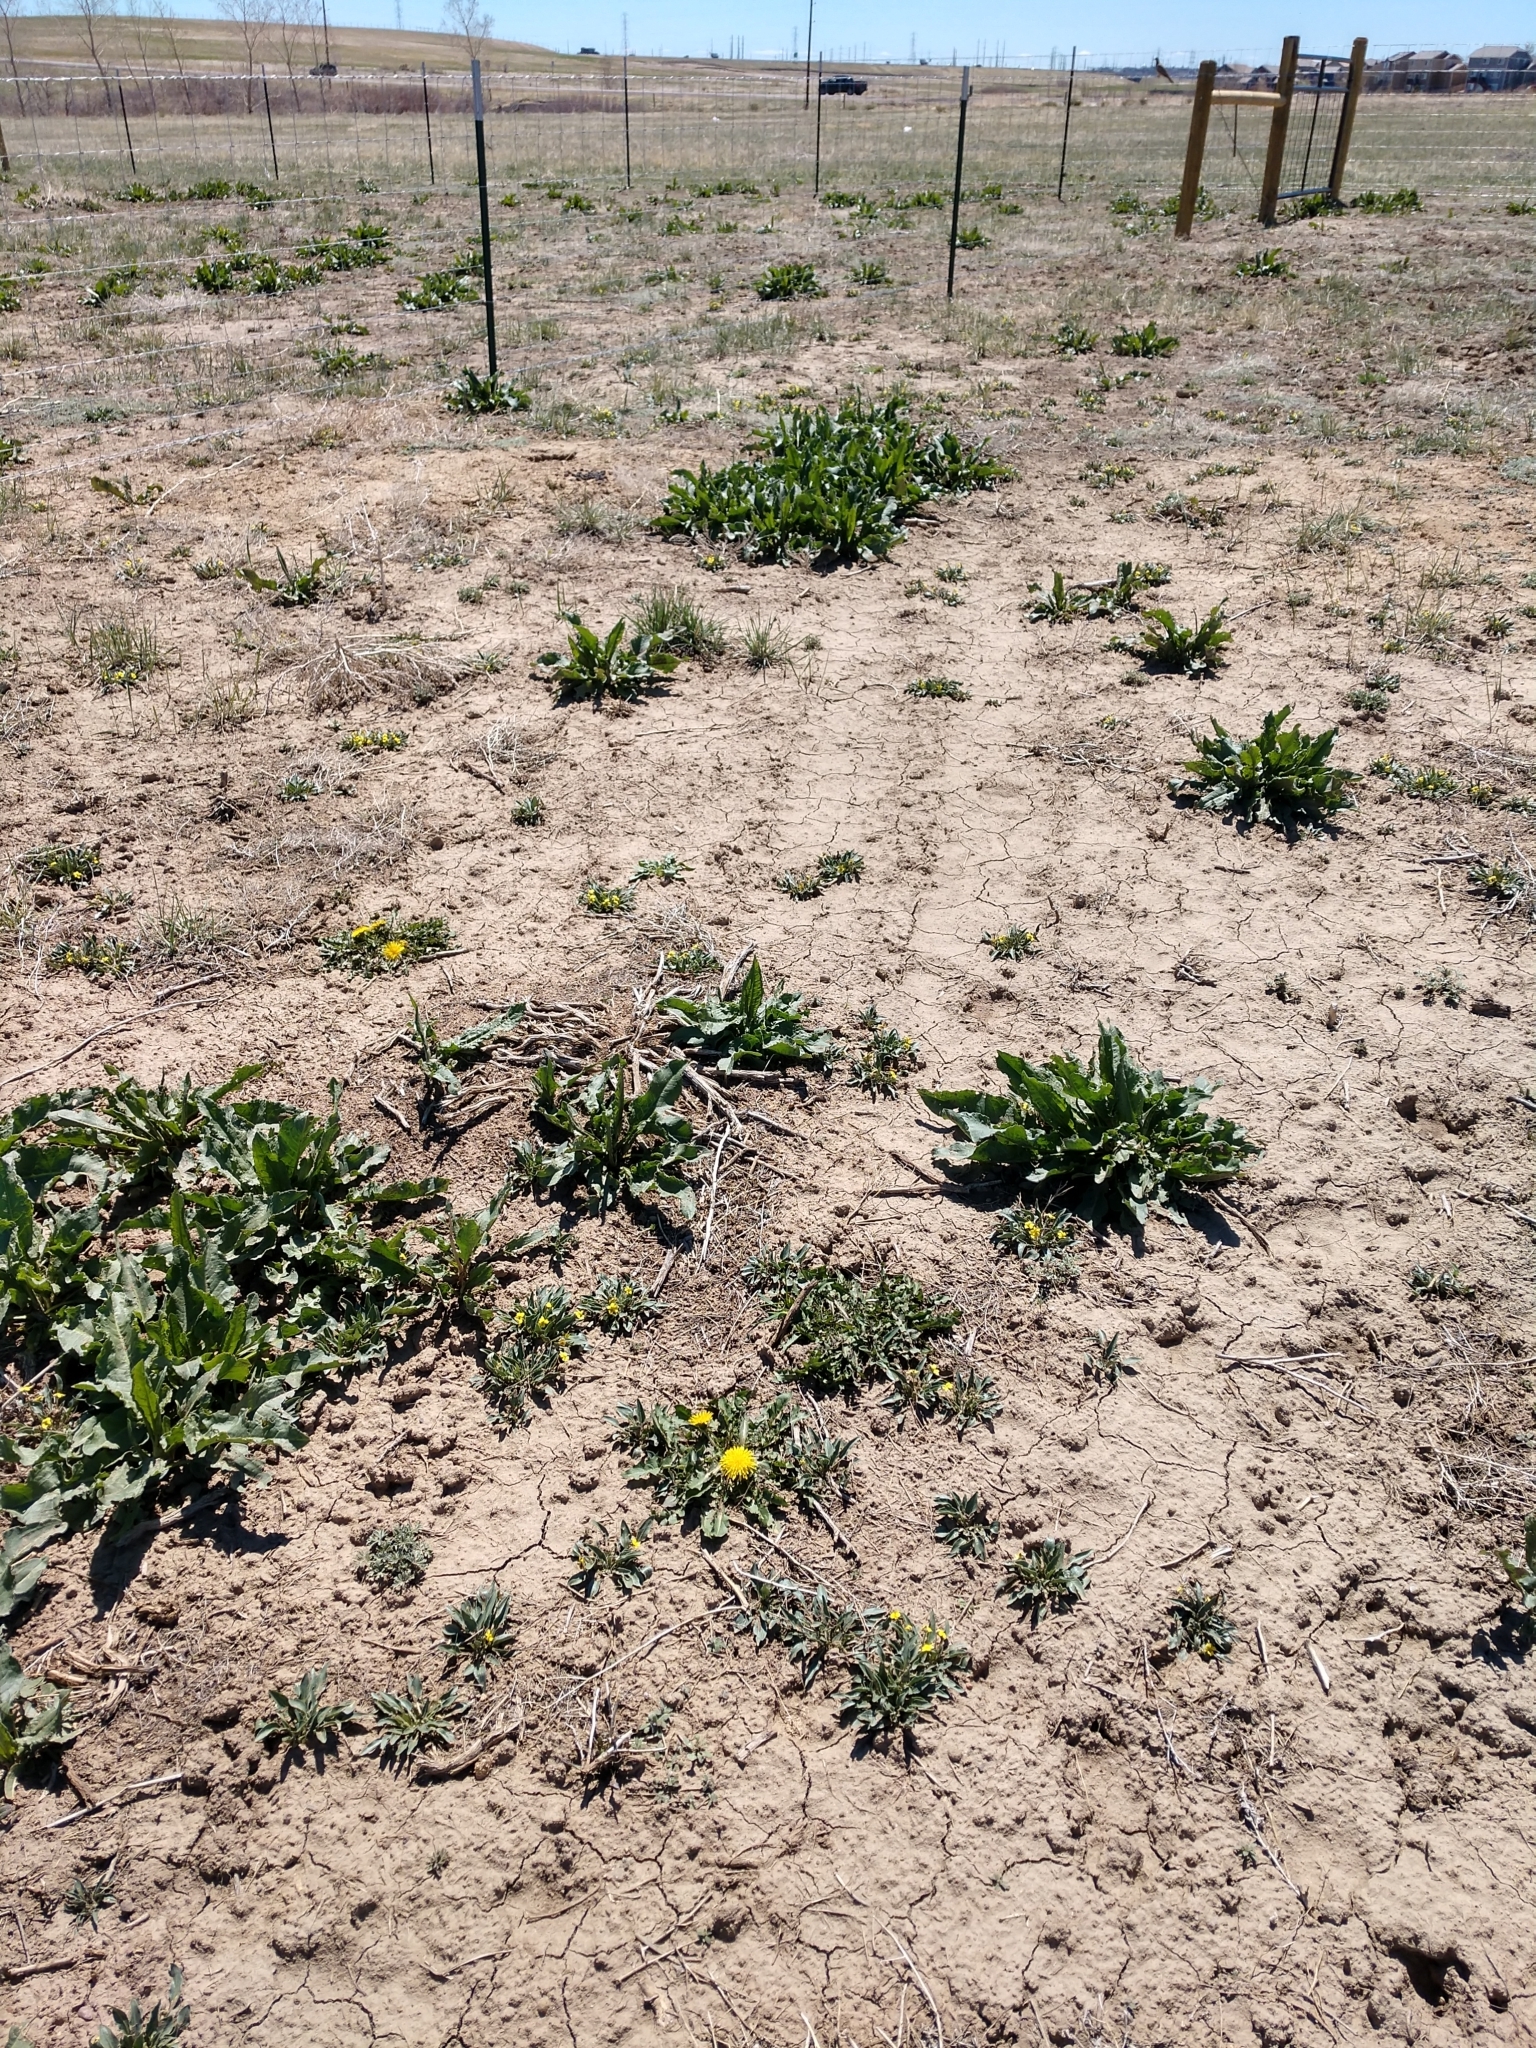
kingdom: Plantae
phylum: Tracheophyta
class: Magnoliopsida
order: Asterales
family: Asteraceae
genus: Taraxacum
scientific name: Taraxacum officinale
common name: Common dandelion
